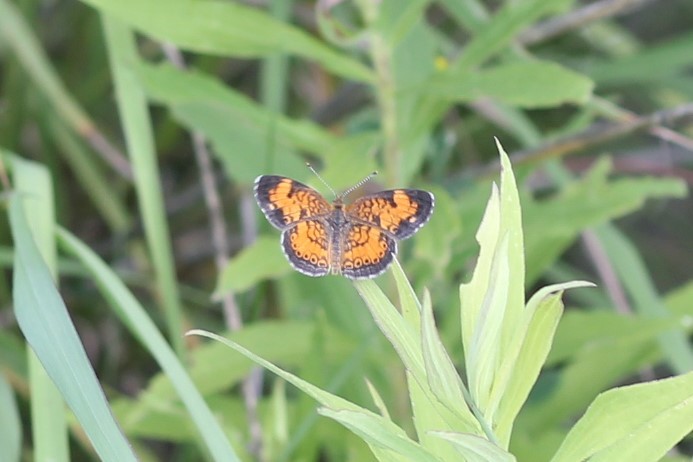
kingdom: Animalia
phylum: Arthropoda
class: Insecta
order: Lepidoptera
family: Nymphalidae
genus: Phyciodes
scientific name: Phyciodes tharos
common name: Pearl crescent
